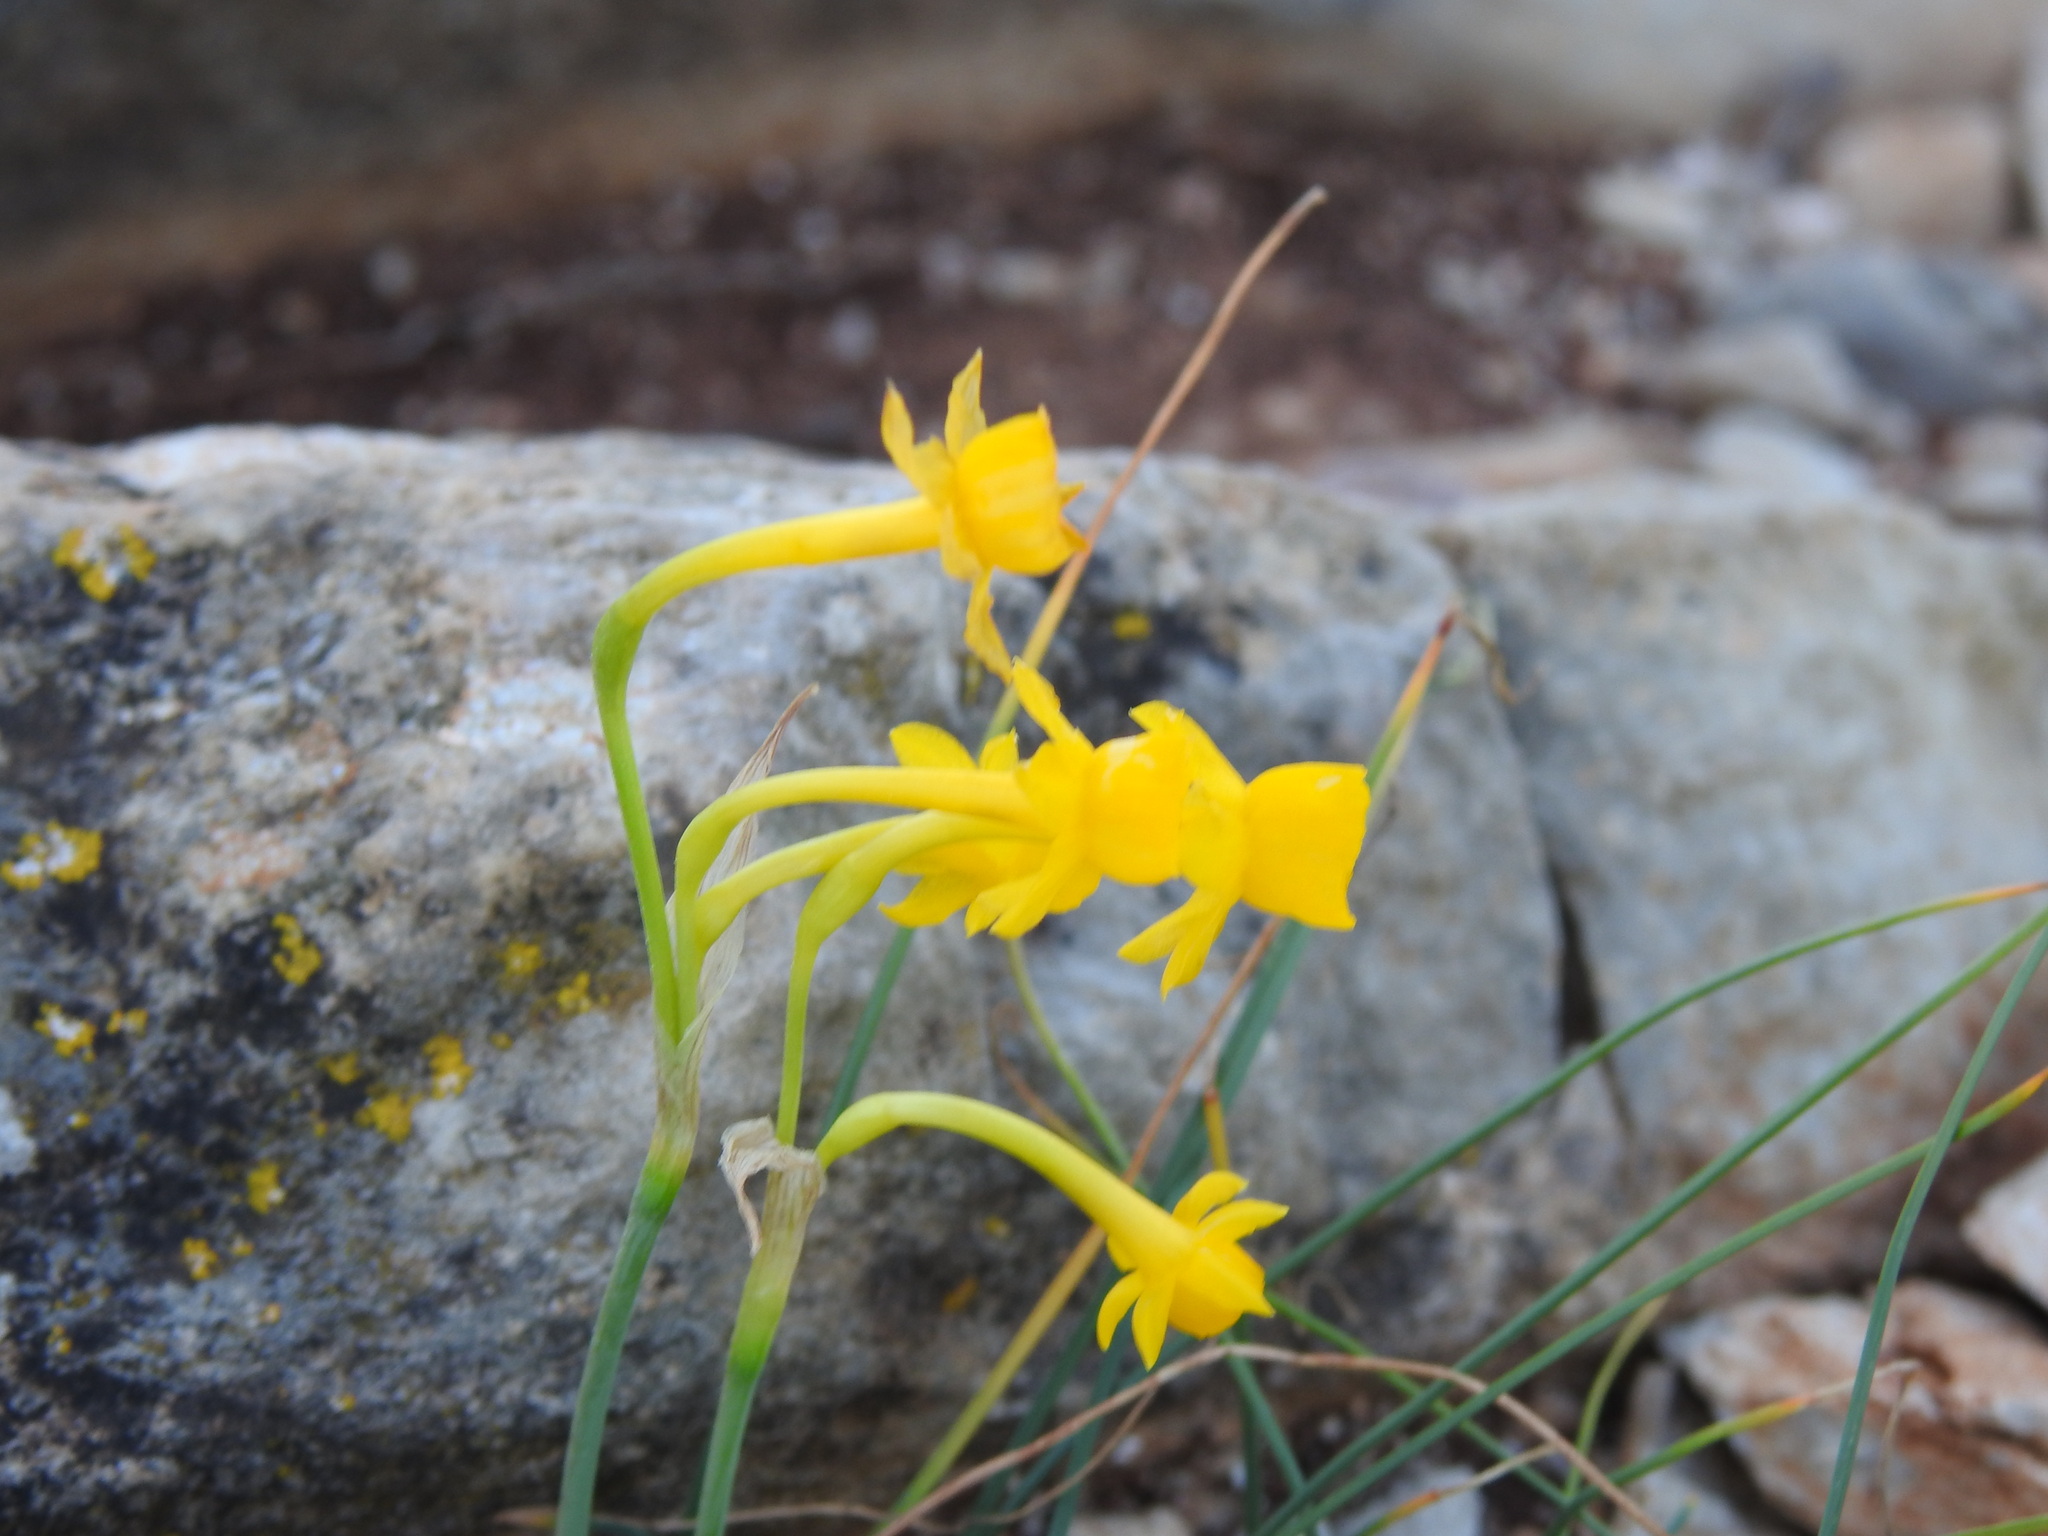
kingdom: Plantae
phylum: Tracheophyta
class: Liliopsida
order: Asparagales
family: Amaryllidaceae
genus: Narcissus
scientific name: Narcissus gaditanus
